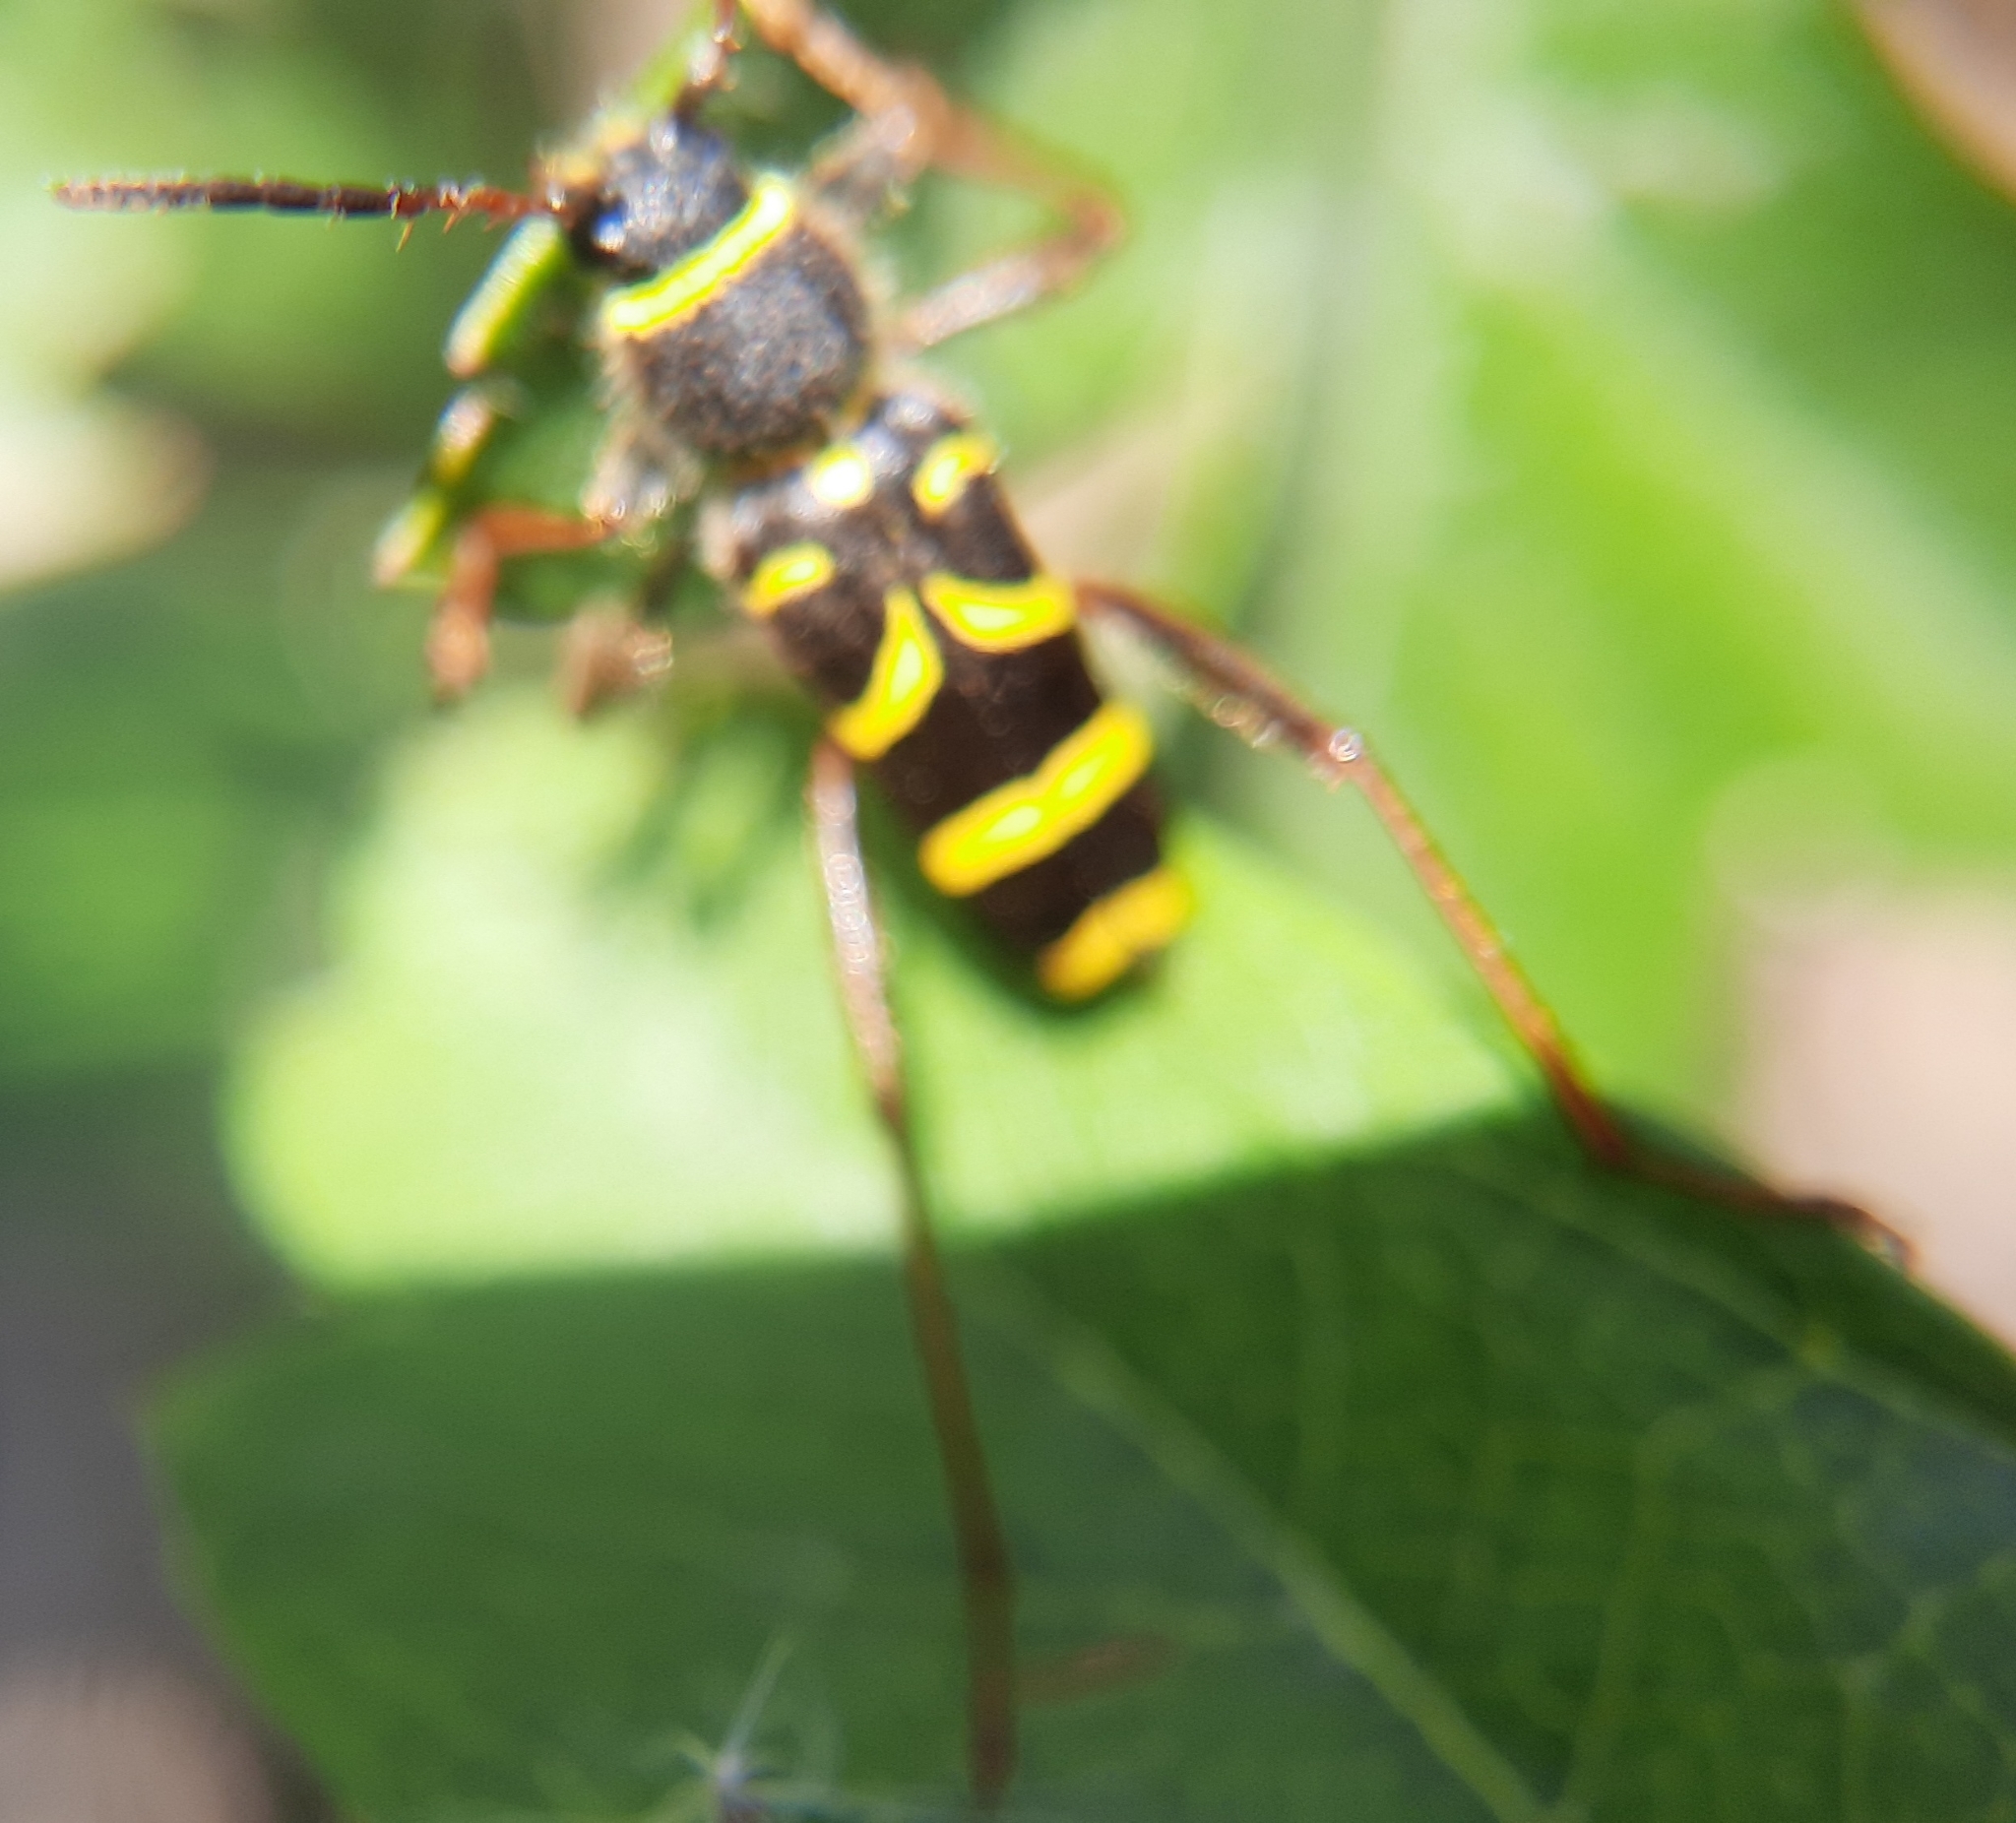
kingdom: Animalia
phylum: Arthropoda
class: Insecta
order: Coleoptera
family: Cerambycidae
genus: Clytus
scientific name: Clytus arietis
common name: Wasp beetle
